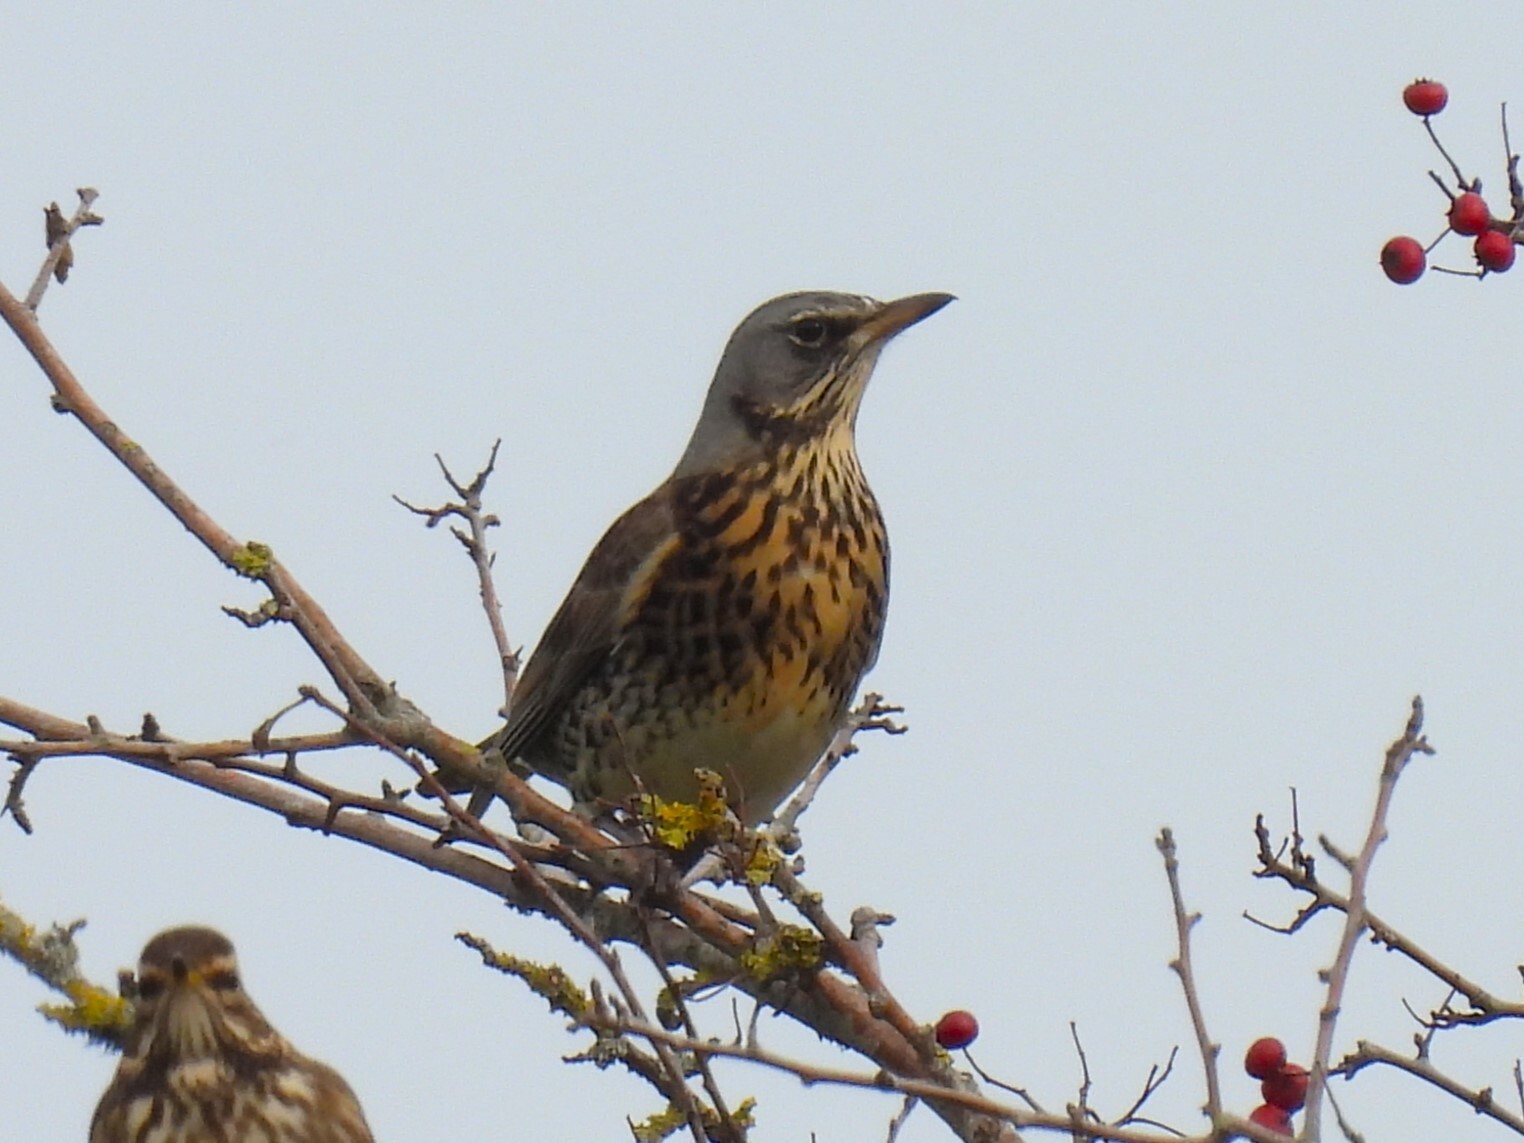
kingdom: Animalia
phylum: Chordata
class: Aves
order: Passeriformes
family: Turdidae
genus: Turdus
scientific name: Turdus pilaris
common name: Fieldfare
